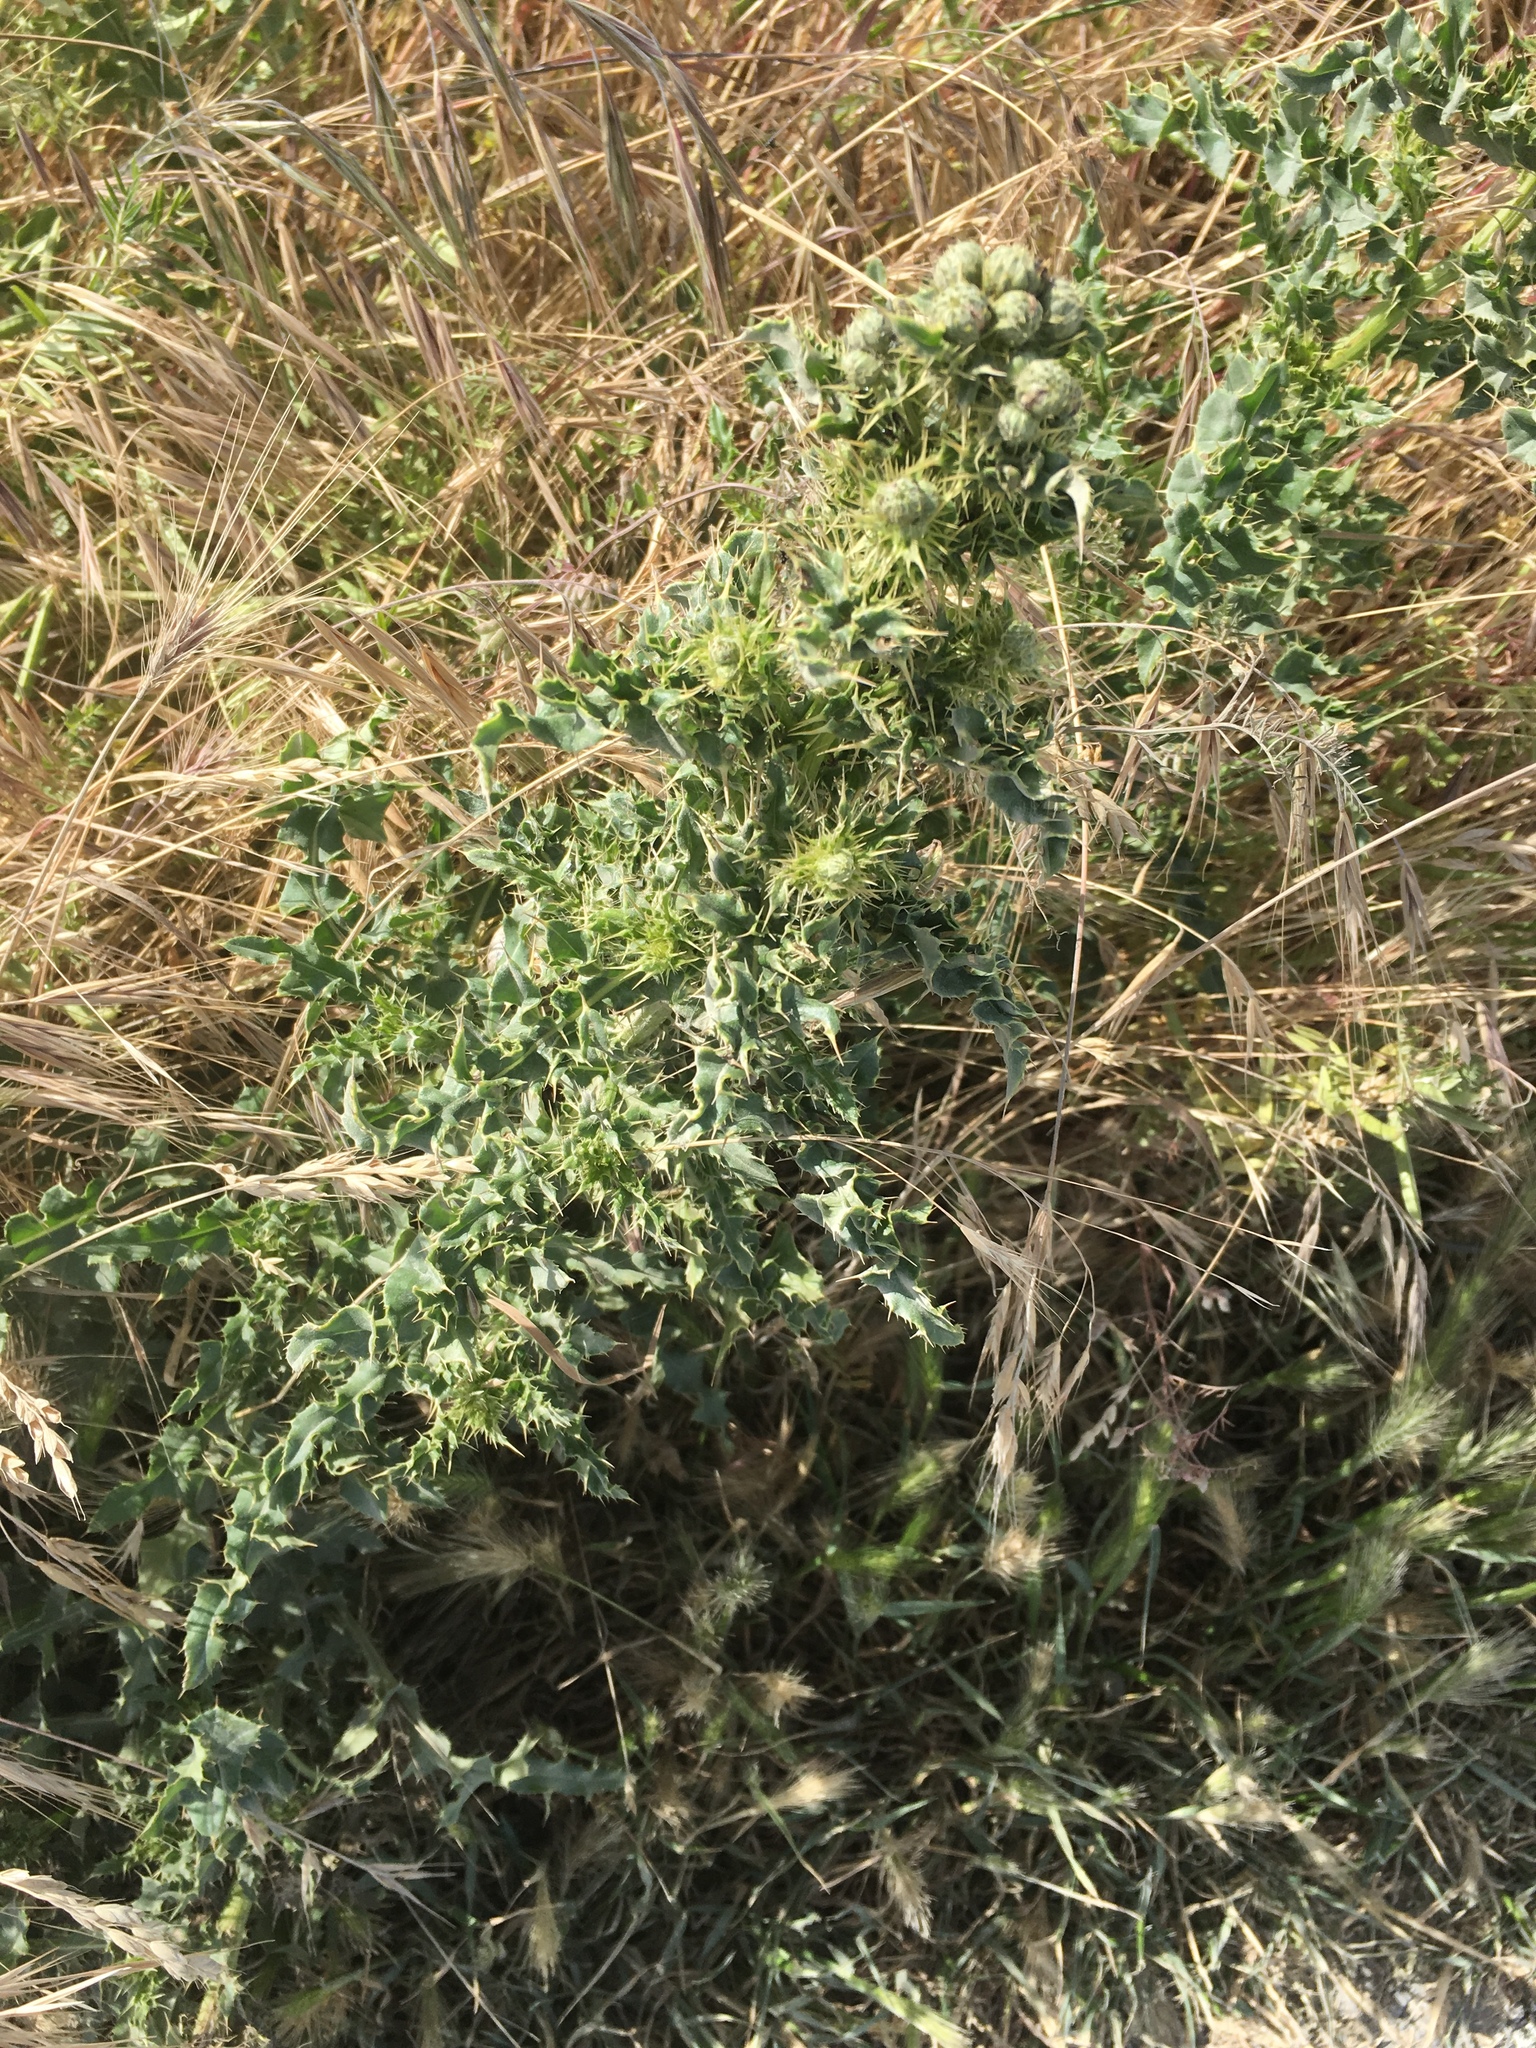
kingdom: Plantae
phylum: Tracheophyta
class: Magnoliopsida
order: Asterales
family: Asteraceae
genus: Cirsium
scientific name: Cirsium arvense
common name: Creeping thistle
